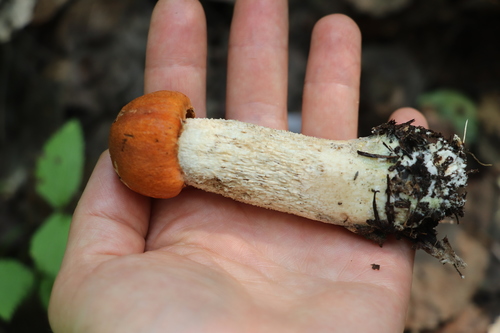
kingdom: Fungi
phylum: Basidiomycota
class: Agaricomycetes
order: Boletales
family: Boletaceae
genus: Leccinum
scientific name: Leccinum albostipitatum
